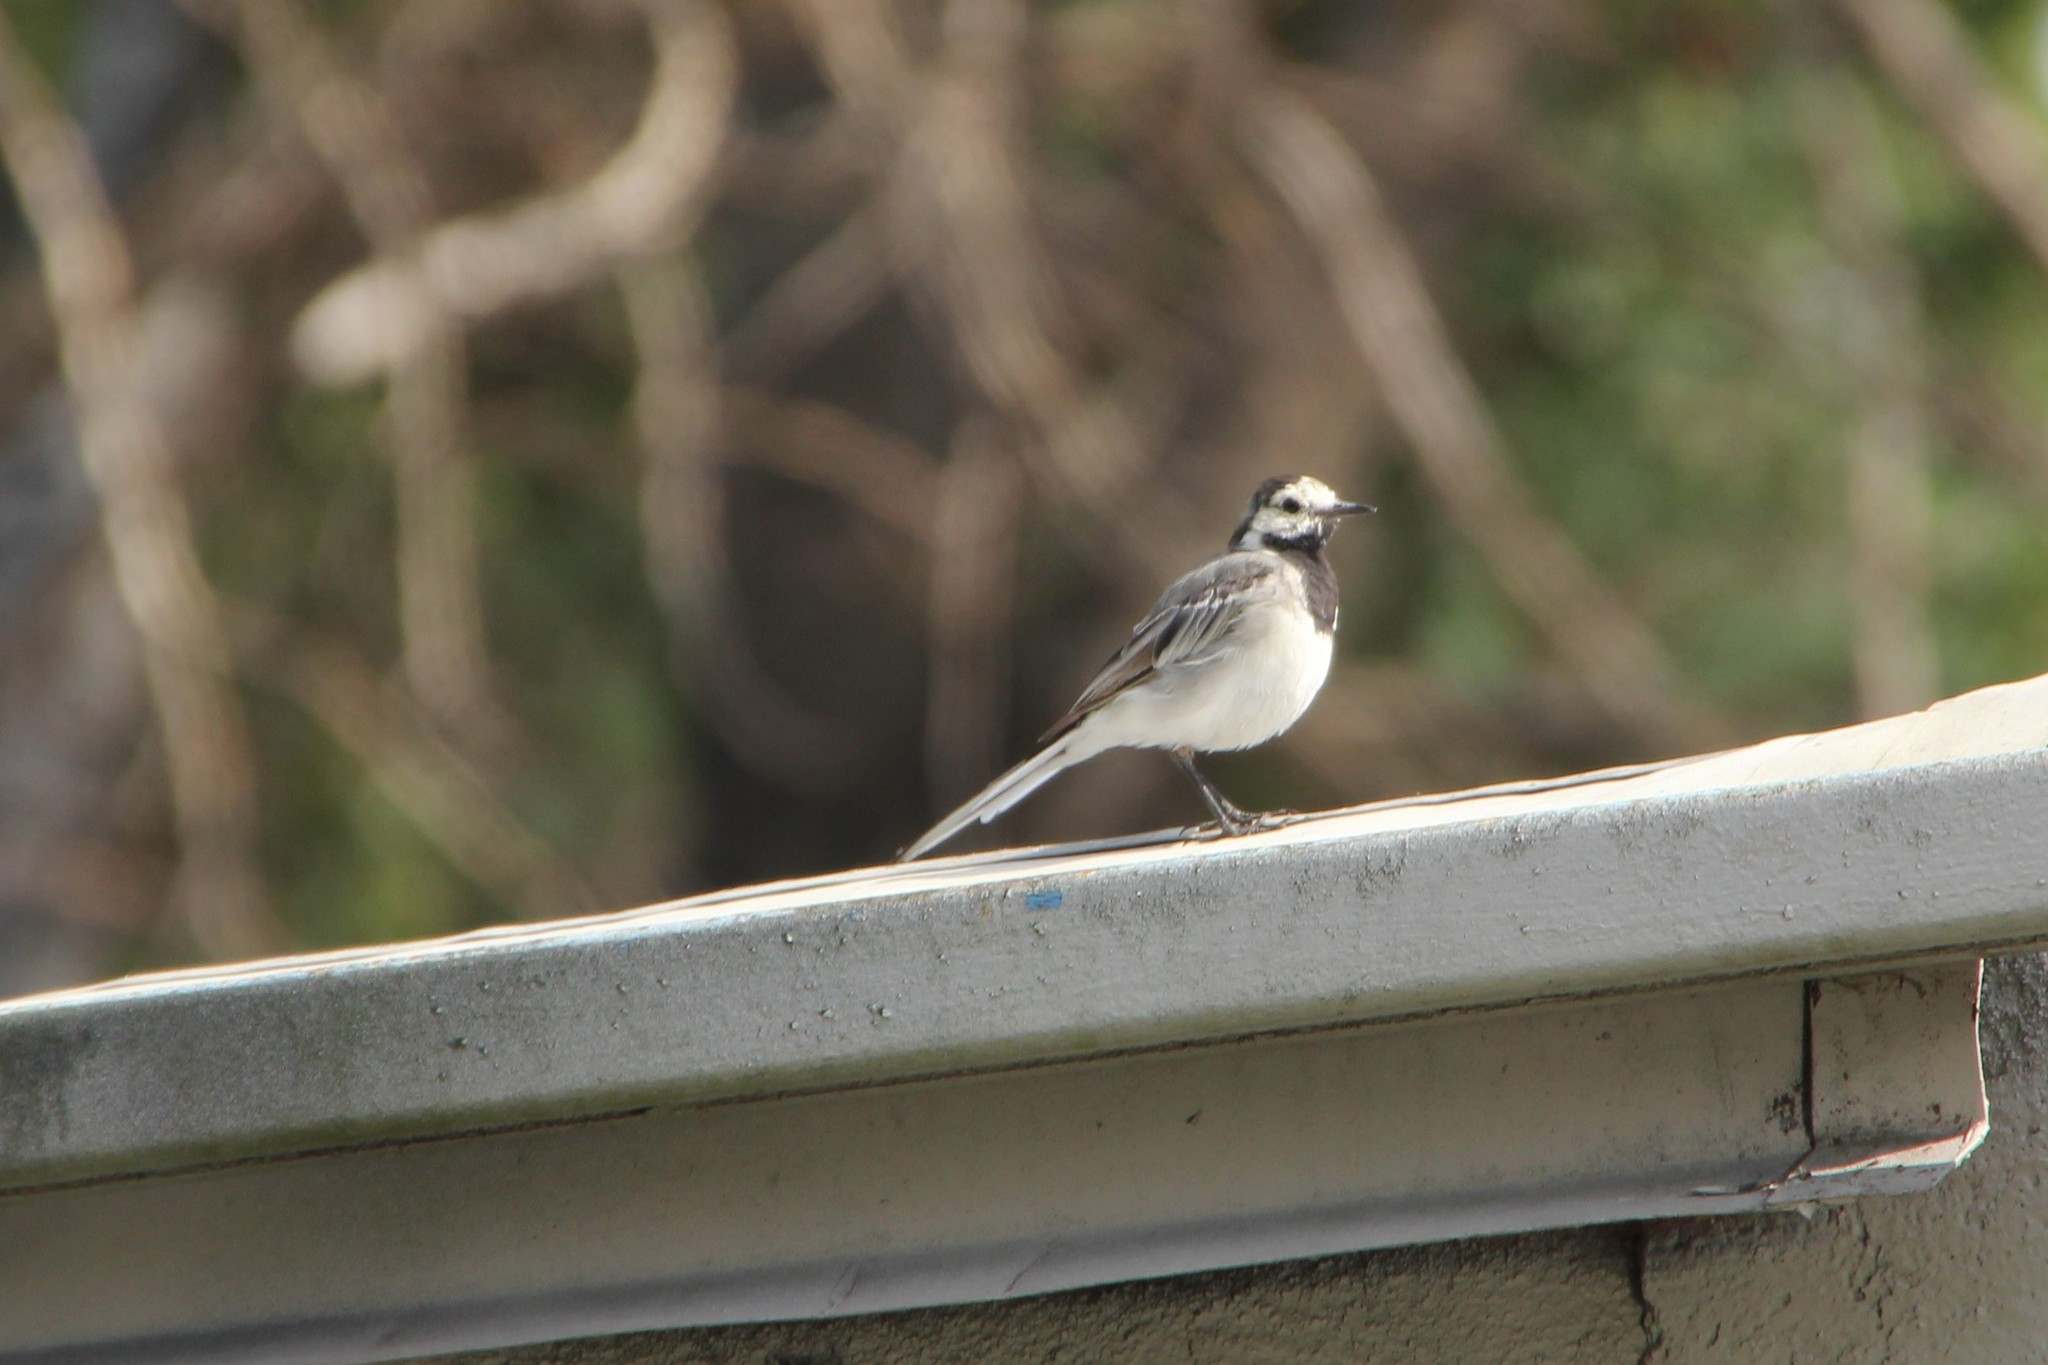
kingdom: Animalia
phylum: Chordata
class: Aves
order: Passeriformes
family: Motacillidae
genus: Motacilla
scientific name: Motacilla alba
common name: White wagtail
